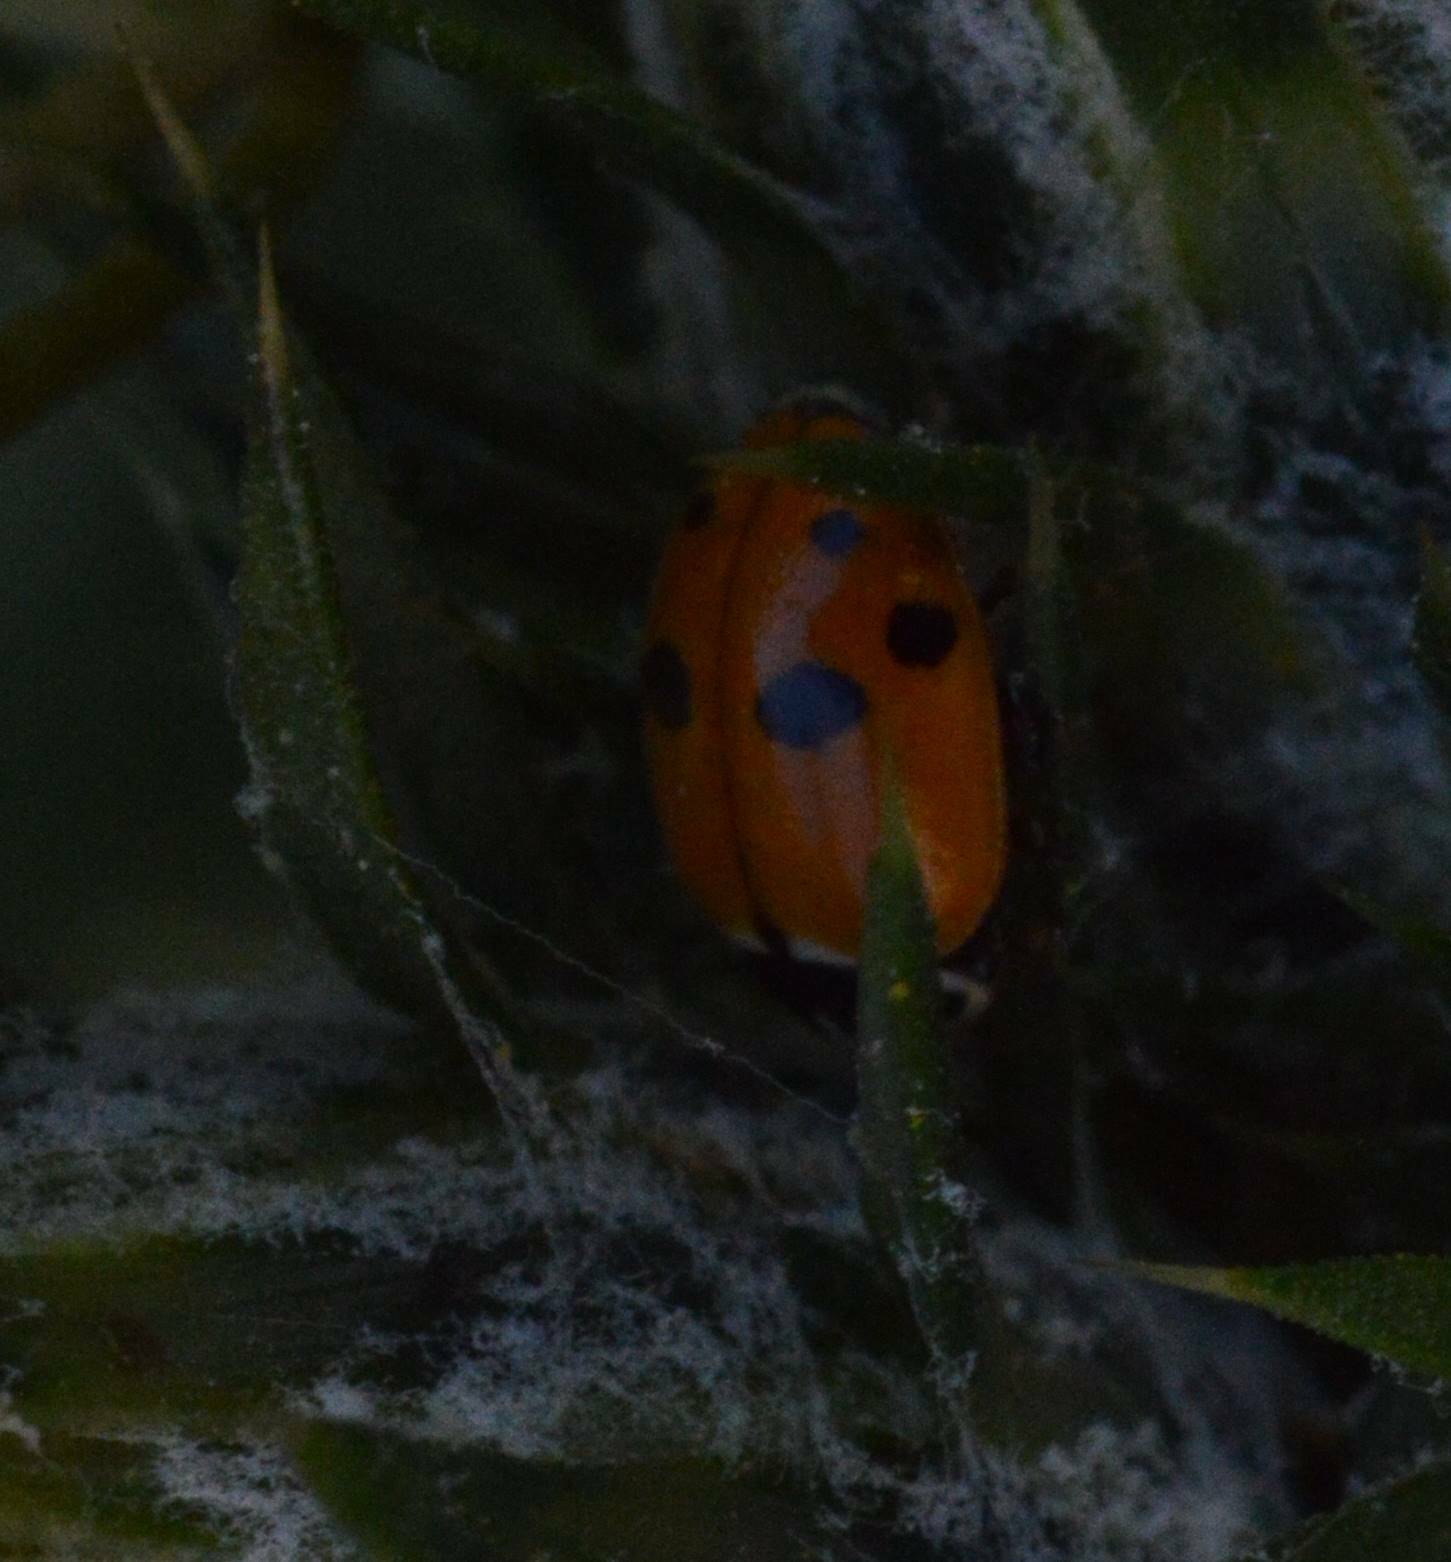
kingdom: Animalia
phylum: Arthropoda
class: Insecta
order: Coleoptera
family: Coccinellidae
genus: Hippodamia
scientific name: Hippodamia variegata
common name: Ladybird beetle
